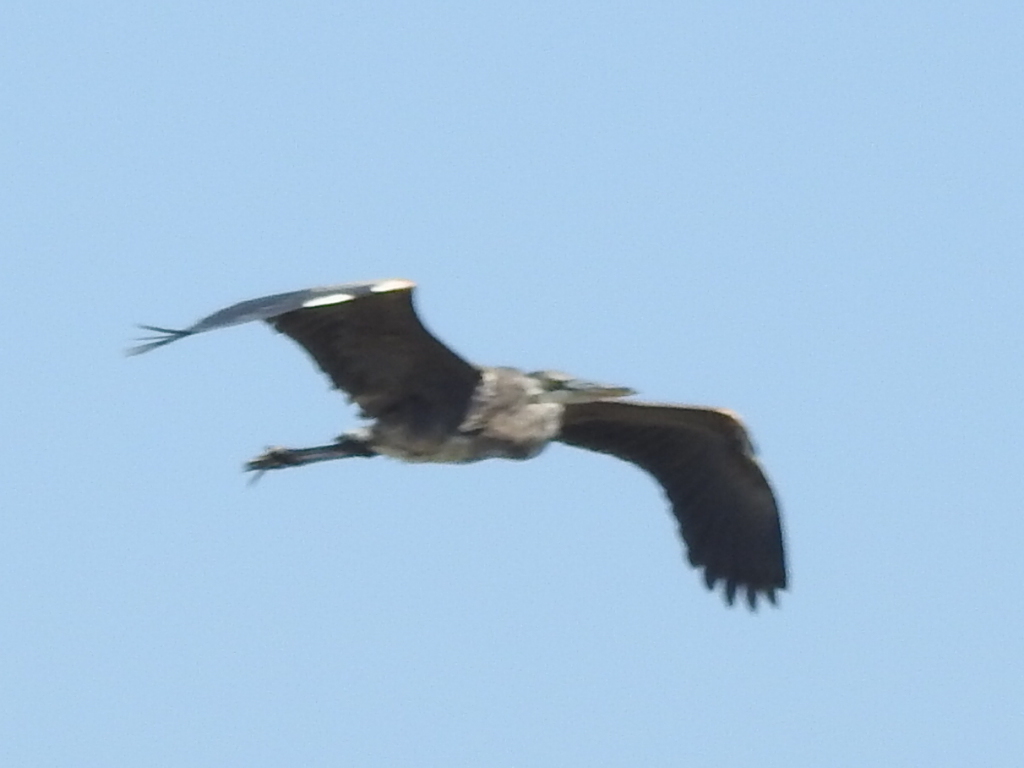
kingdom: Animalia
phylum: Chordata
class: Aves
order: Pelecaniformes
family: Ardeidae
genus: Ardea
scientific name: Ardea herodias
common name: Great blue heron
